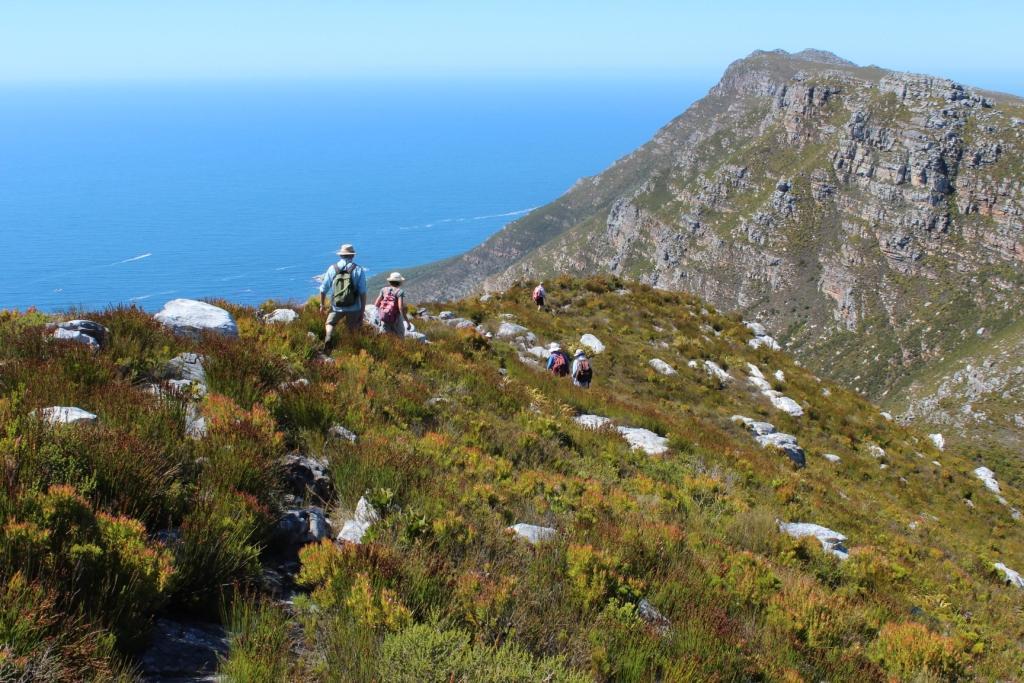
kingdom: Plantae
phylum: Tracheophyta
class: Magnoliopsida
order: Proteales
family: Proteaceae
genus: Leucadendron
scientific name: Leucadendron xanthoconus
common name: Sickle-leaf conebush
